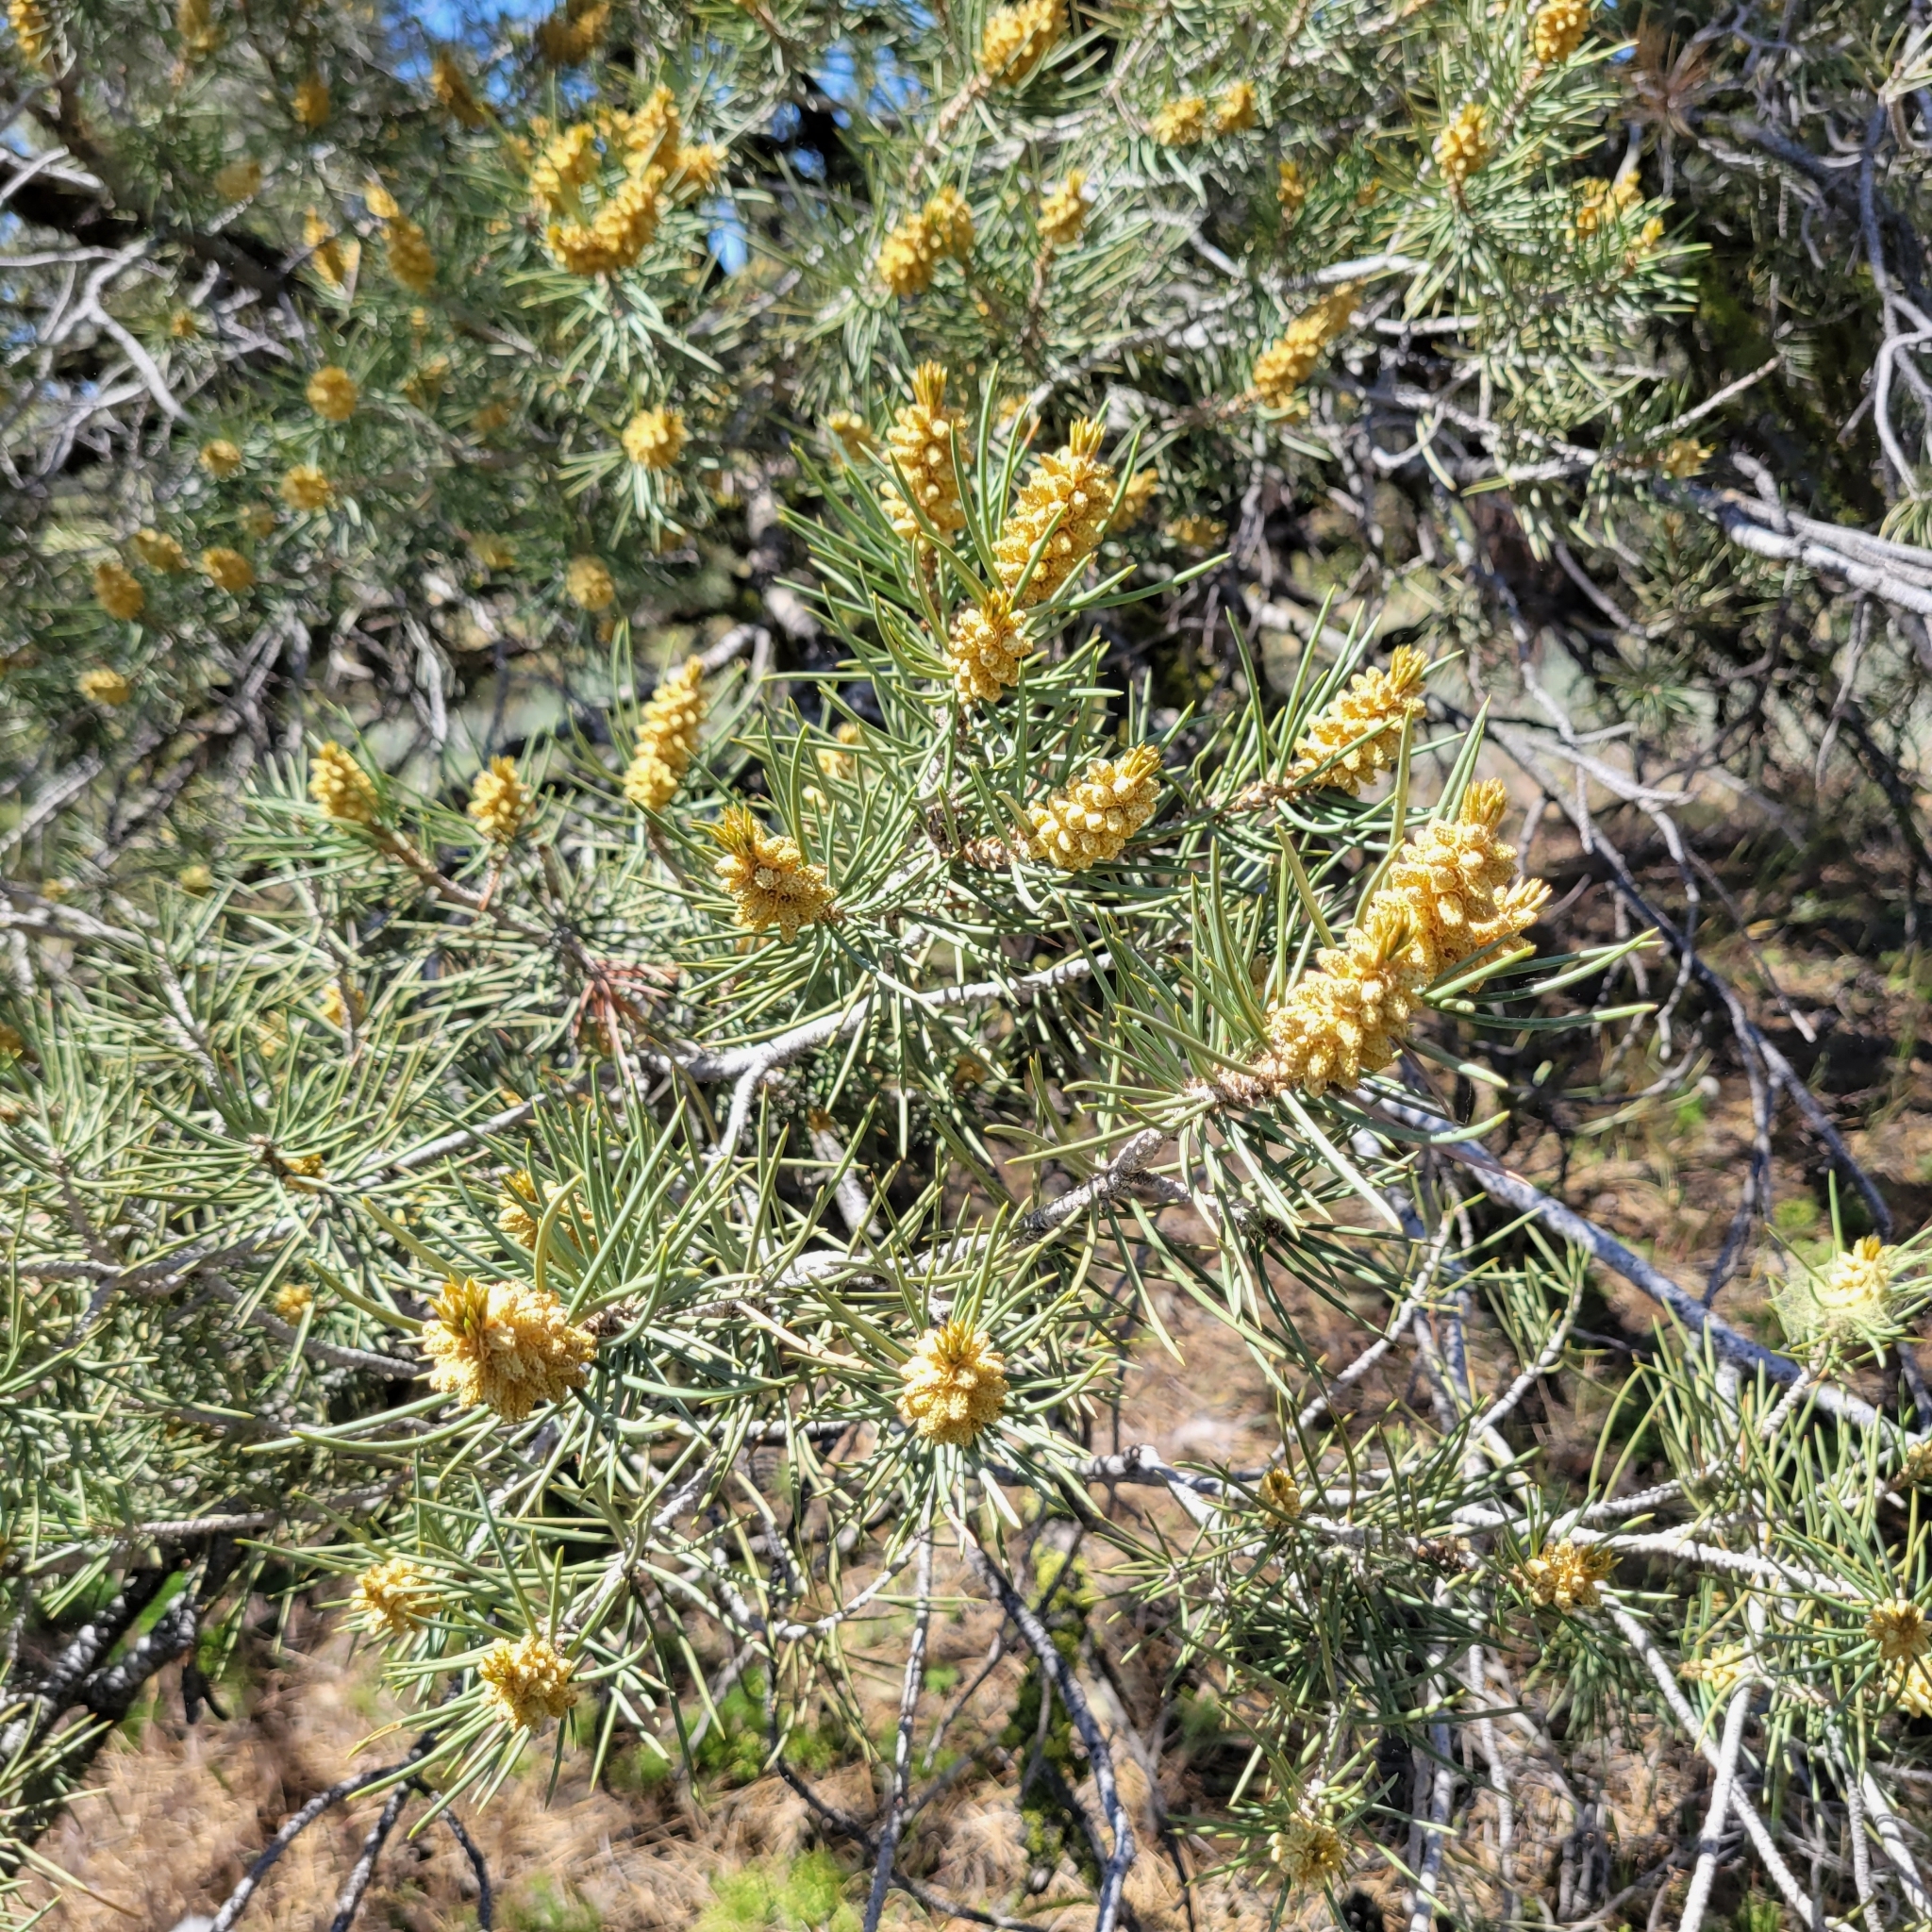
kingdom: Plantae
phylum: Tracheophyta
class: Pinopsida
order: Pinales
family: Pinaceae
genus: Pinus
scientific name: Pinus monophylla
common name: One-leaved nut pine
